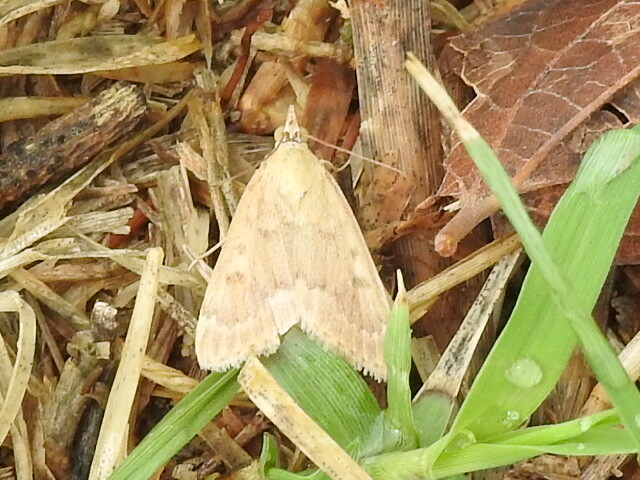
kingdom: Animalia
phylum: Arthropoda
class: Insecta
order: Lepidoptera
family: Crambidae
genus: Achyra
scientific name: Achyra rantalis
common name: Garden webworm
